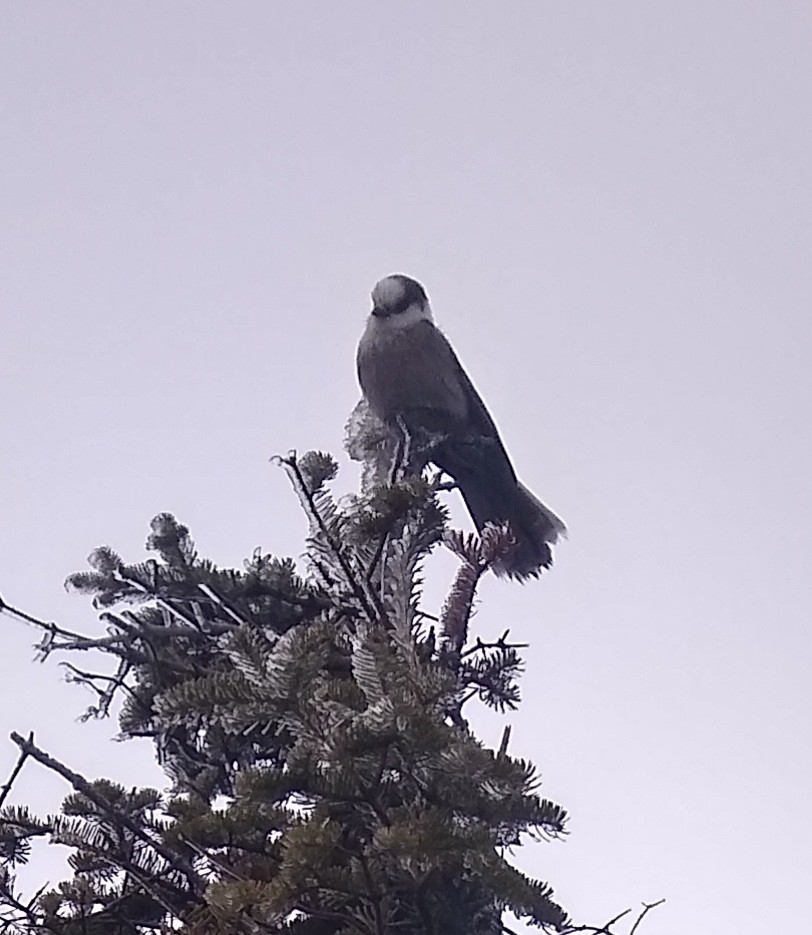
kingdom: Animalia
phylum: Chordata
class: Aves
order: Passeriformes
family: Corvidae
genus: Perisoreus
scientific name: Perisoreus canadensis
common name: Gray jay
